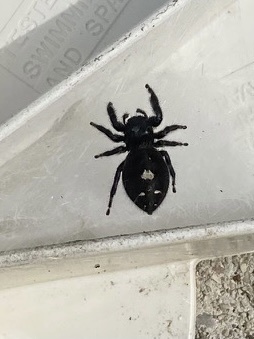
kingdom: Animalia
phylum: Arthropoda
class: Arachnida
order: Araneae
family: Salticidae
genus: Phidippus
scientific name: Phidippus audax
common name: Bold jumper
